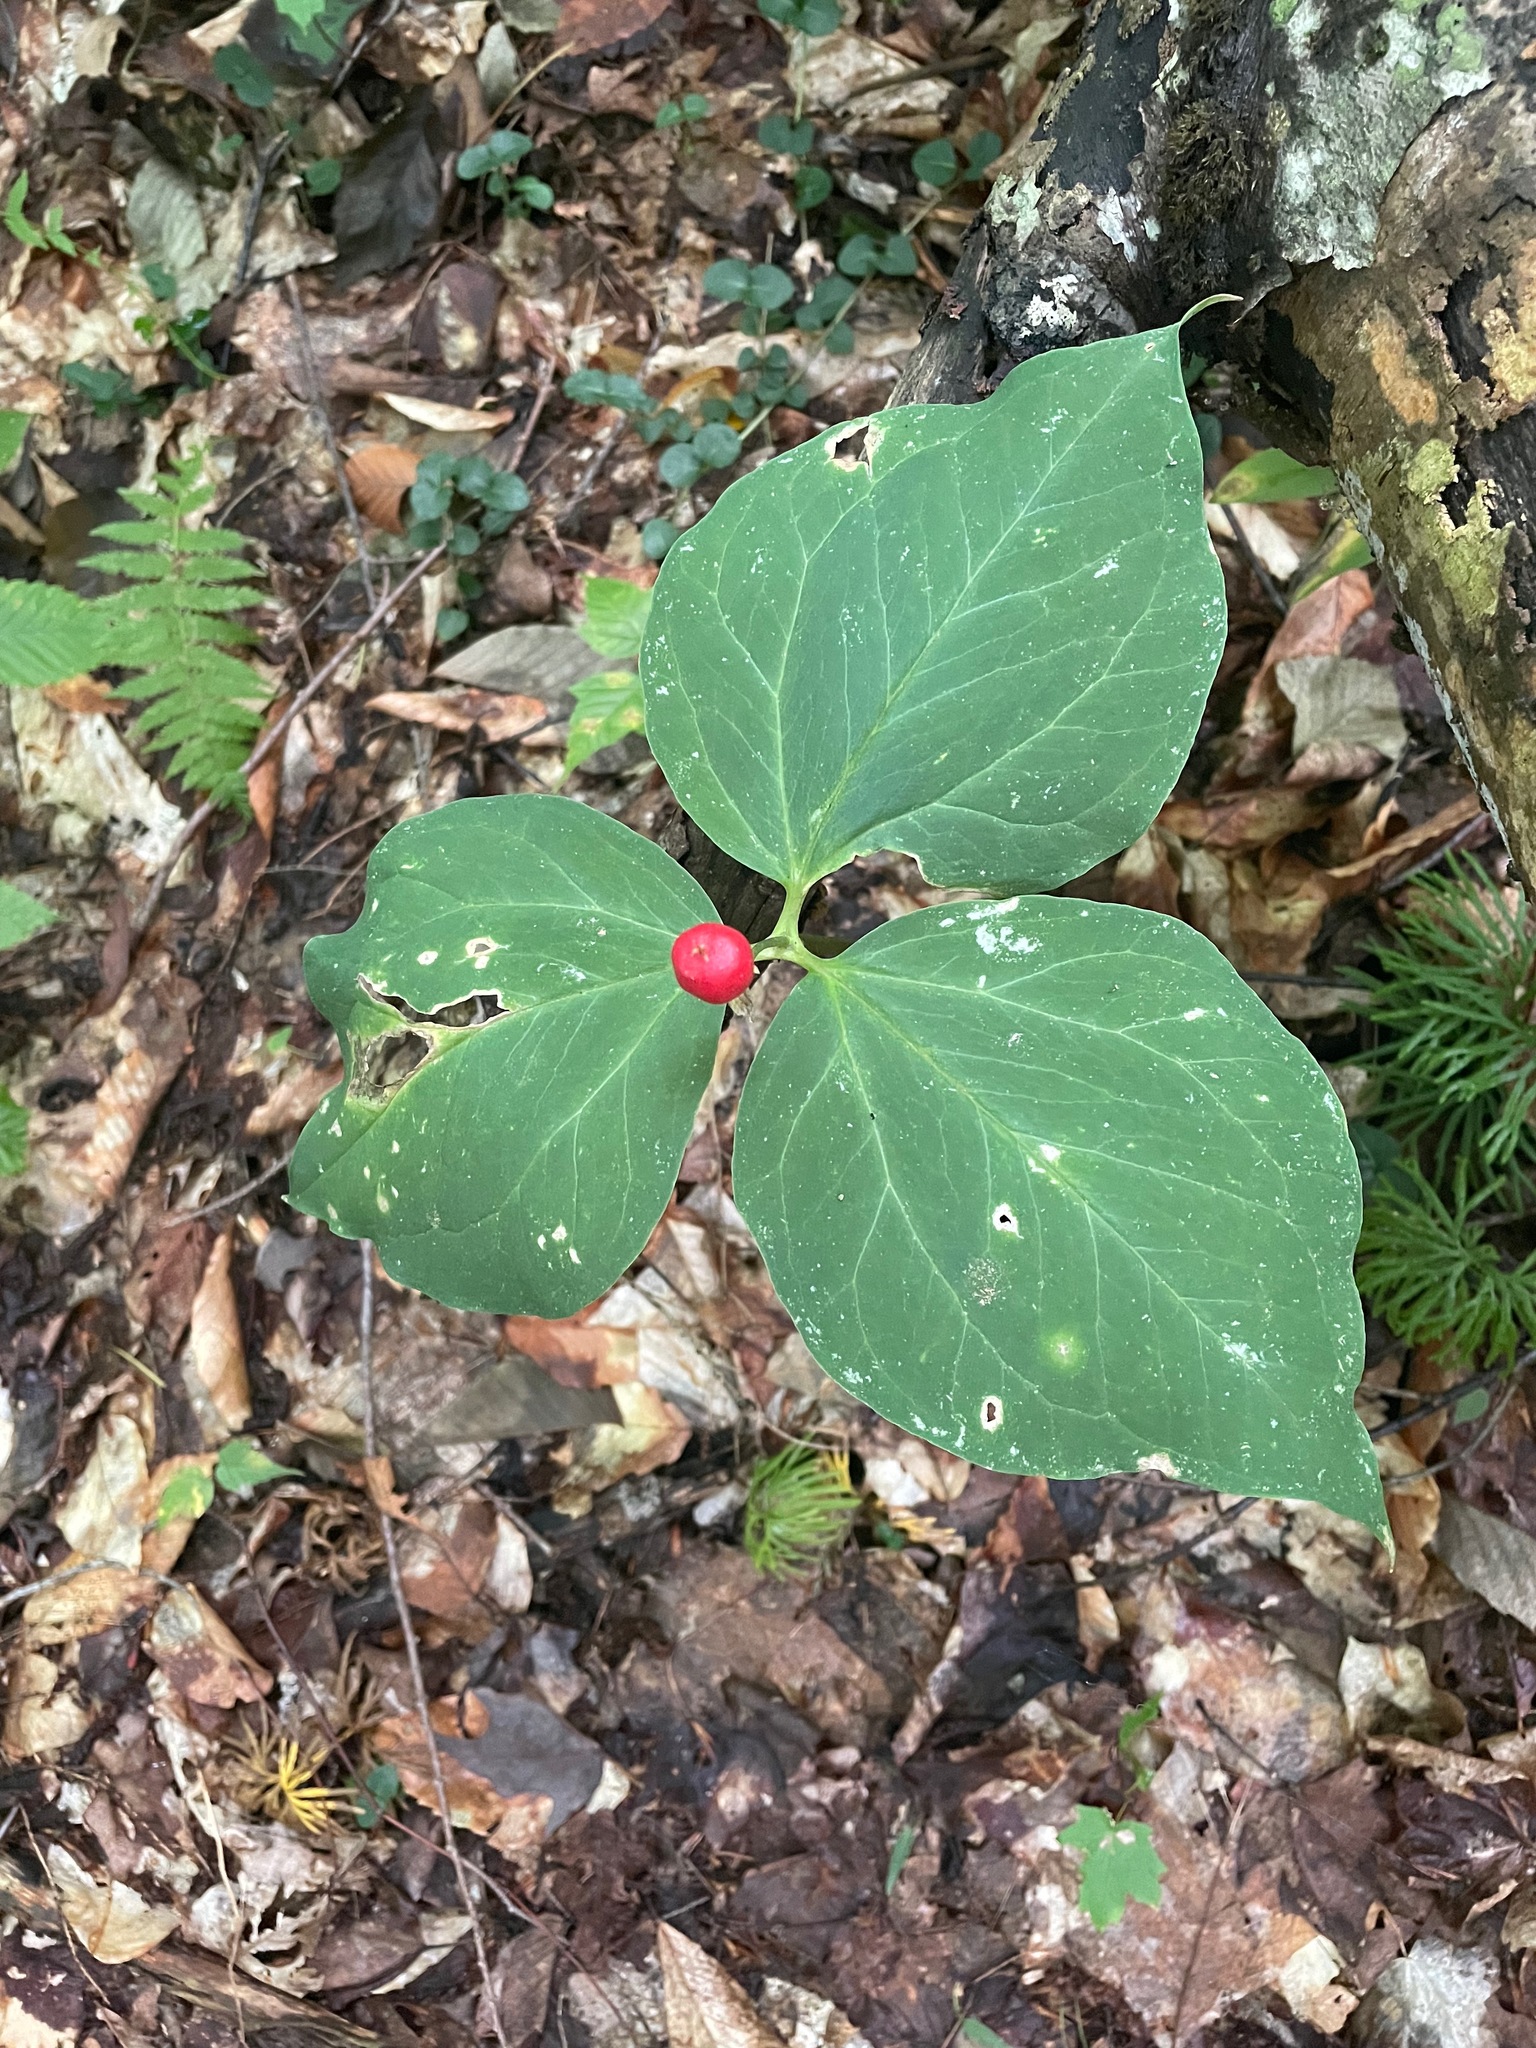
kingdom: Plantae
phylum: Tracheophyta
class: Liliopsida
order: Liliales
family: Melanthiaceae
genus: Trillium
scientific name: Trillium undulatum
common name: Paint trillium
